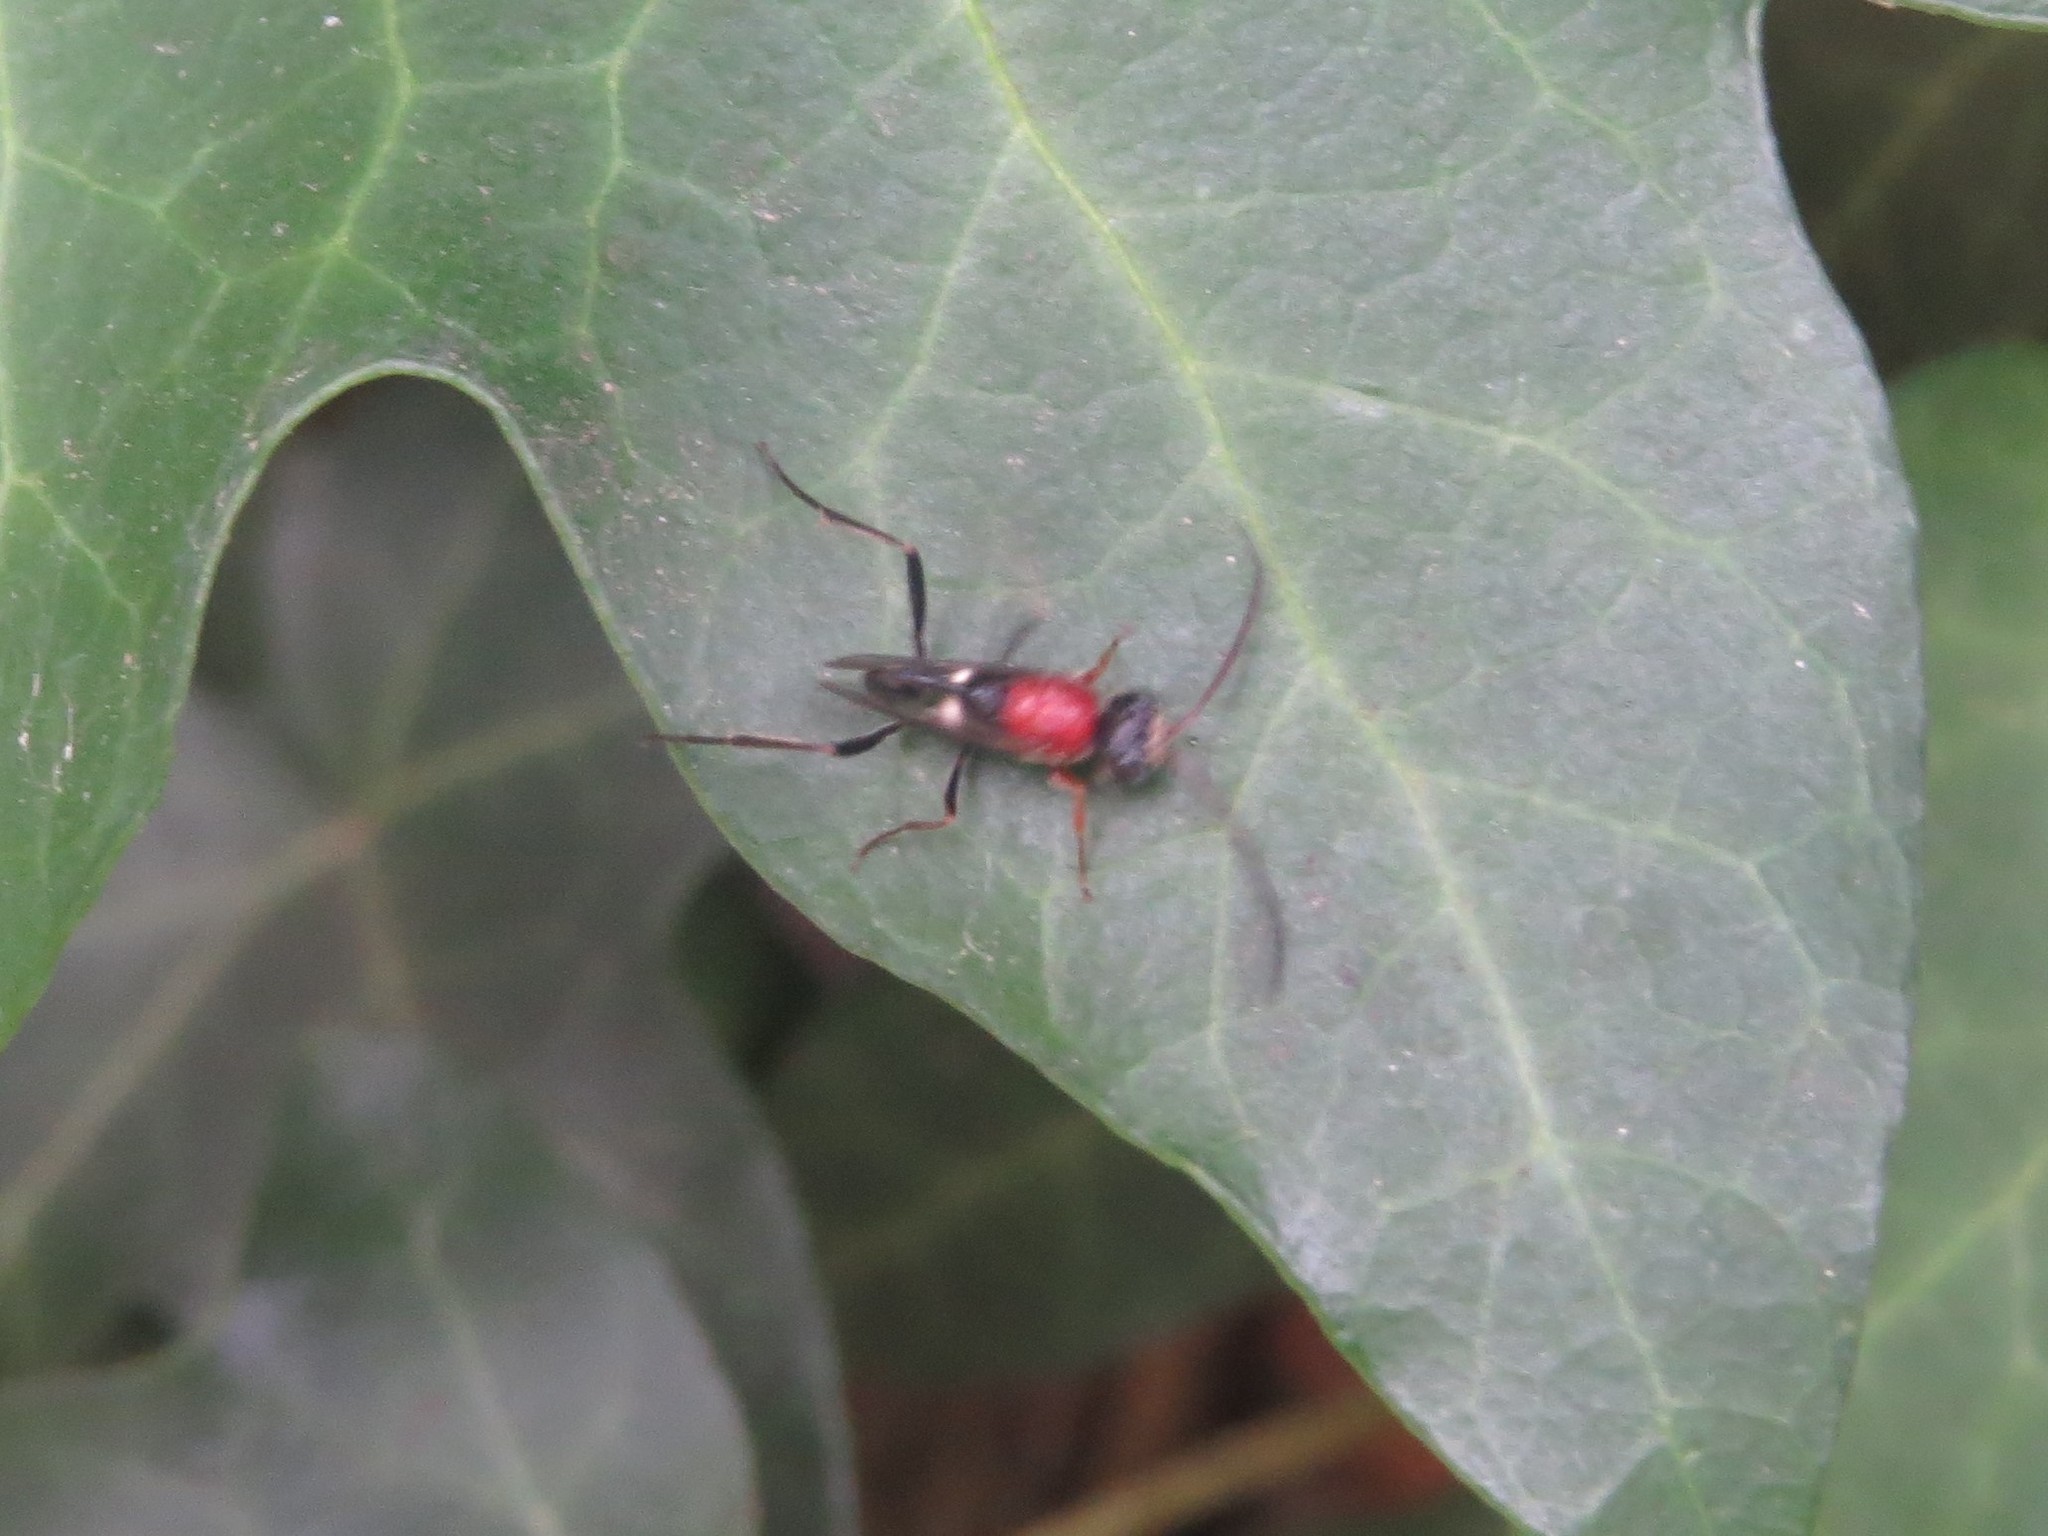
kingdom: Animalia
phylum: Arthropoda
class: Insecta
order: Hymenoptera
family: Evaniidae
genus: Hyptia
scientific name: Hyptia amazonica
